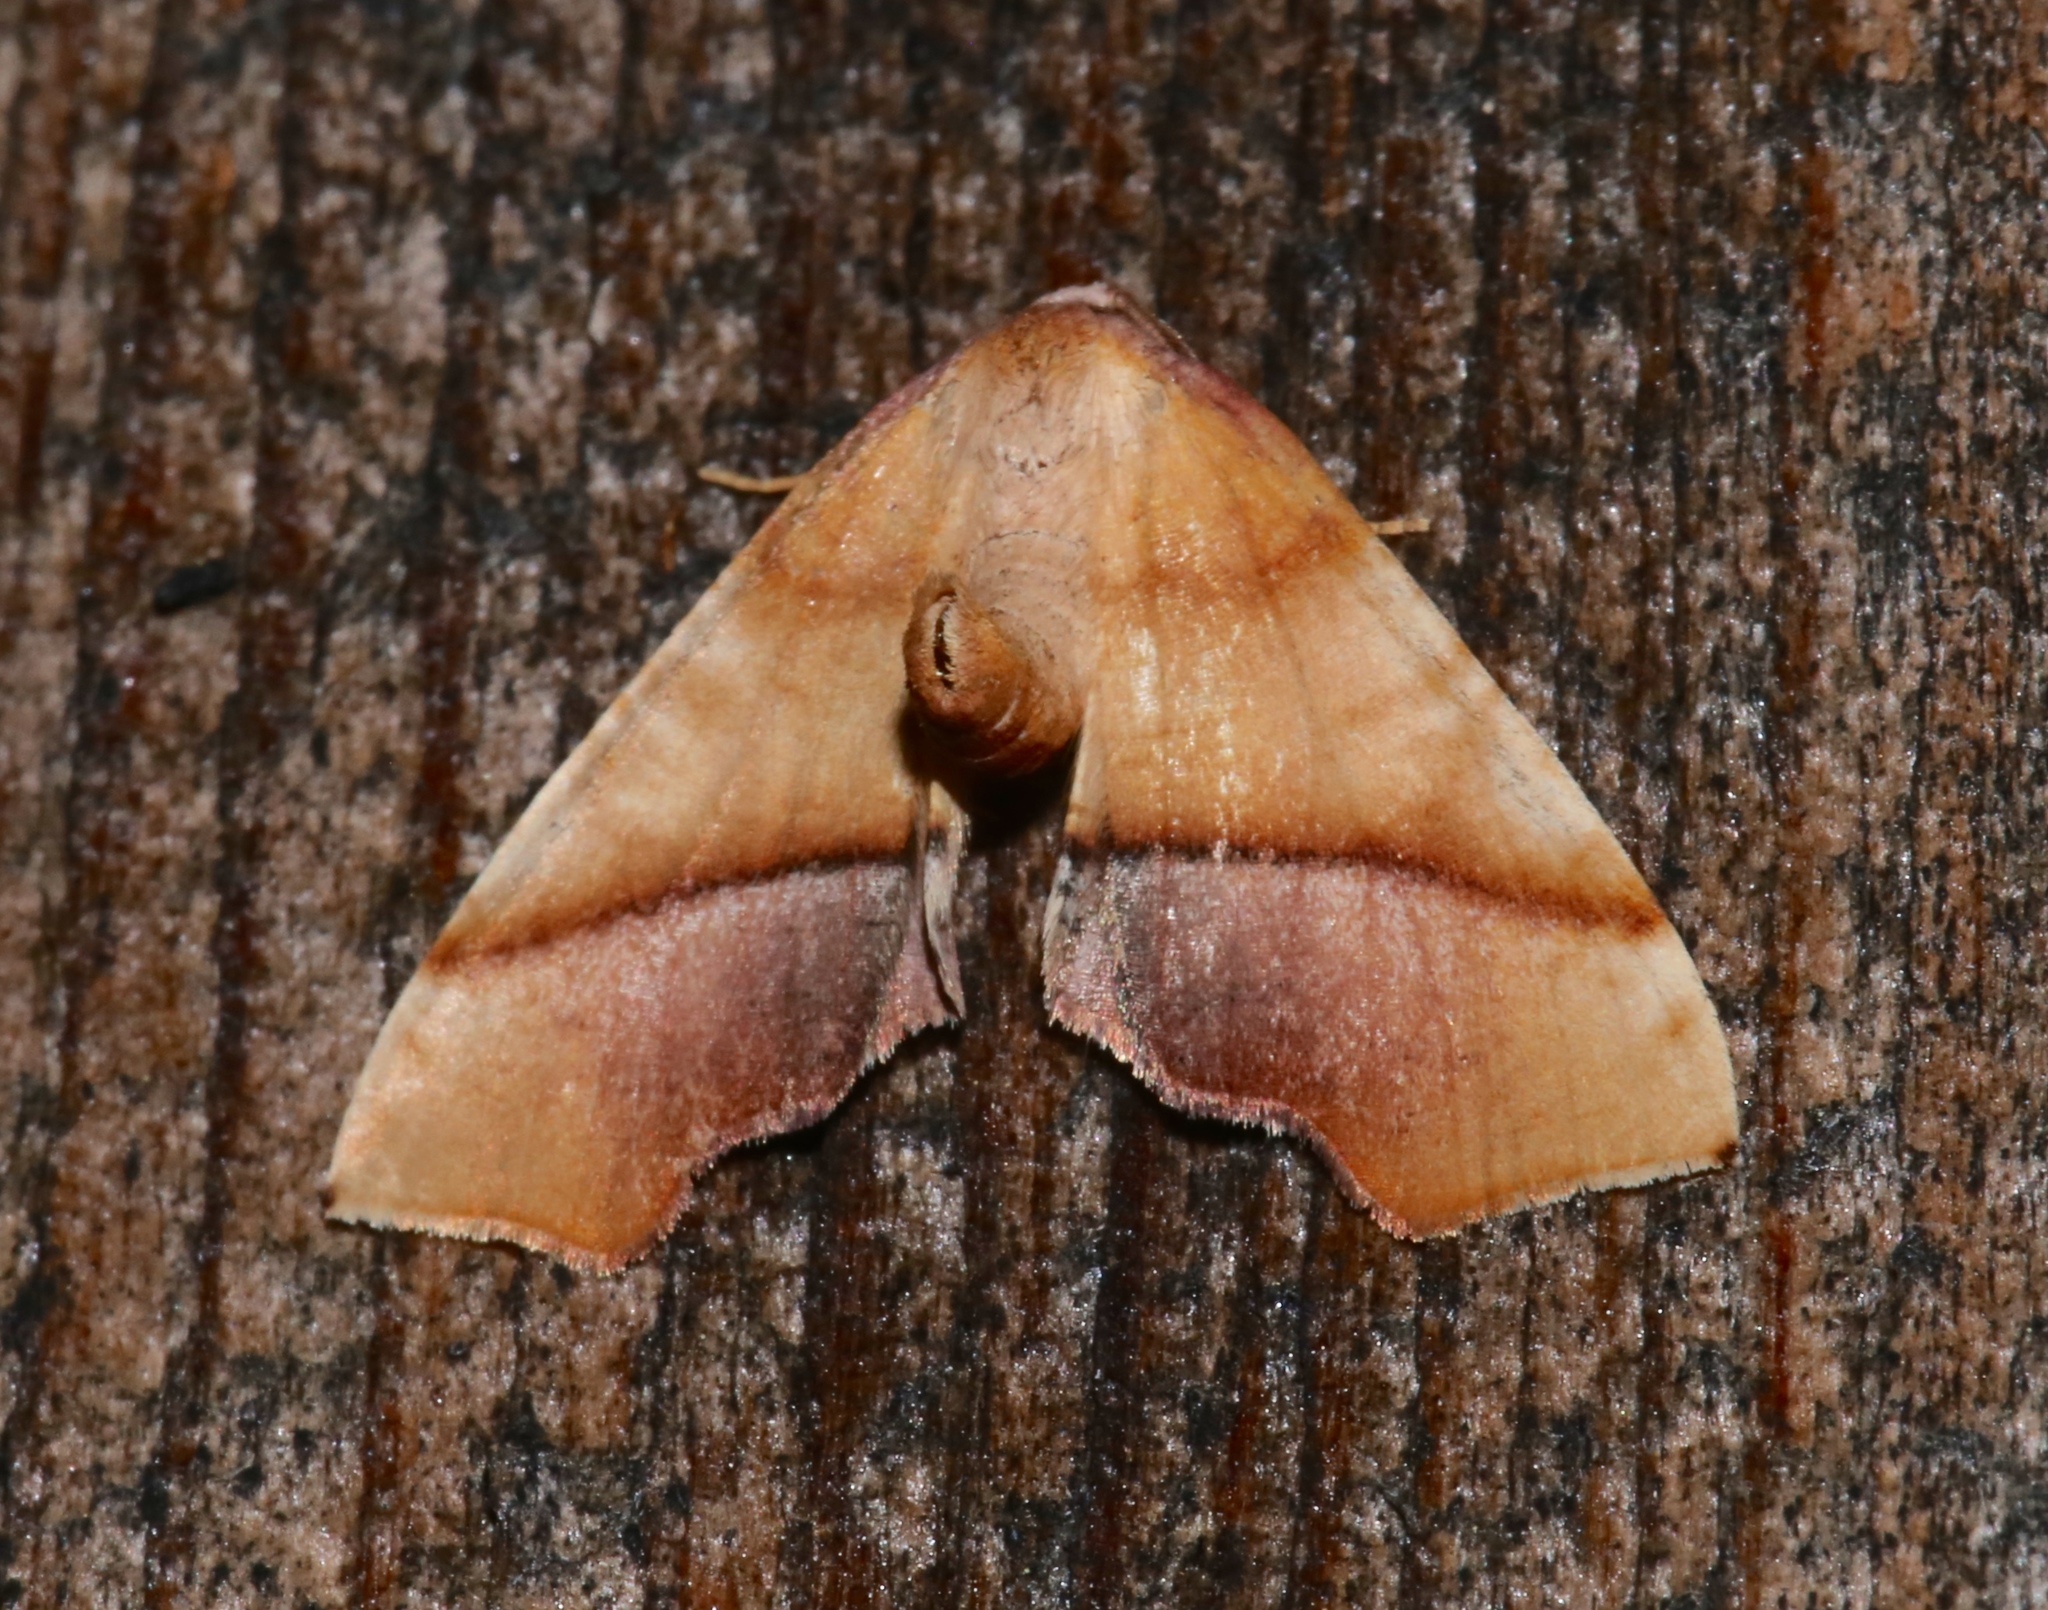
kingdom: Animalia
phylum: Arthropoda
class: Insecta
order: Lepidoptera
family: Geometridae
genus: Plagodis
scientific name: Plagodis phlogosaria
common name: Straight-lined plagodis
